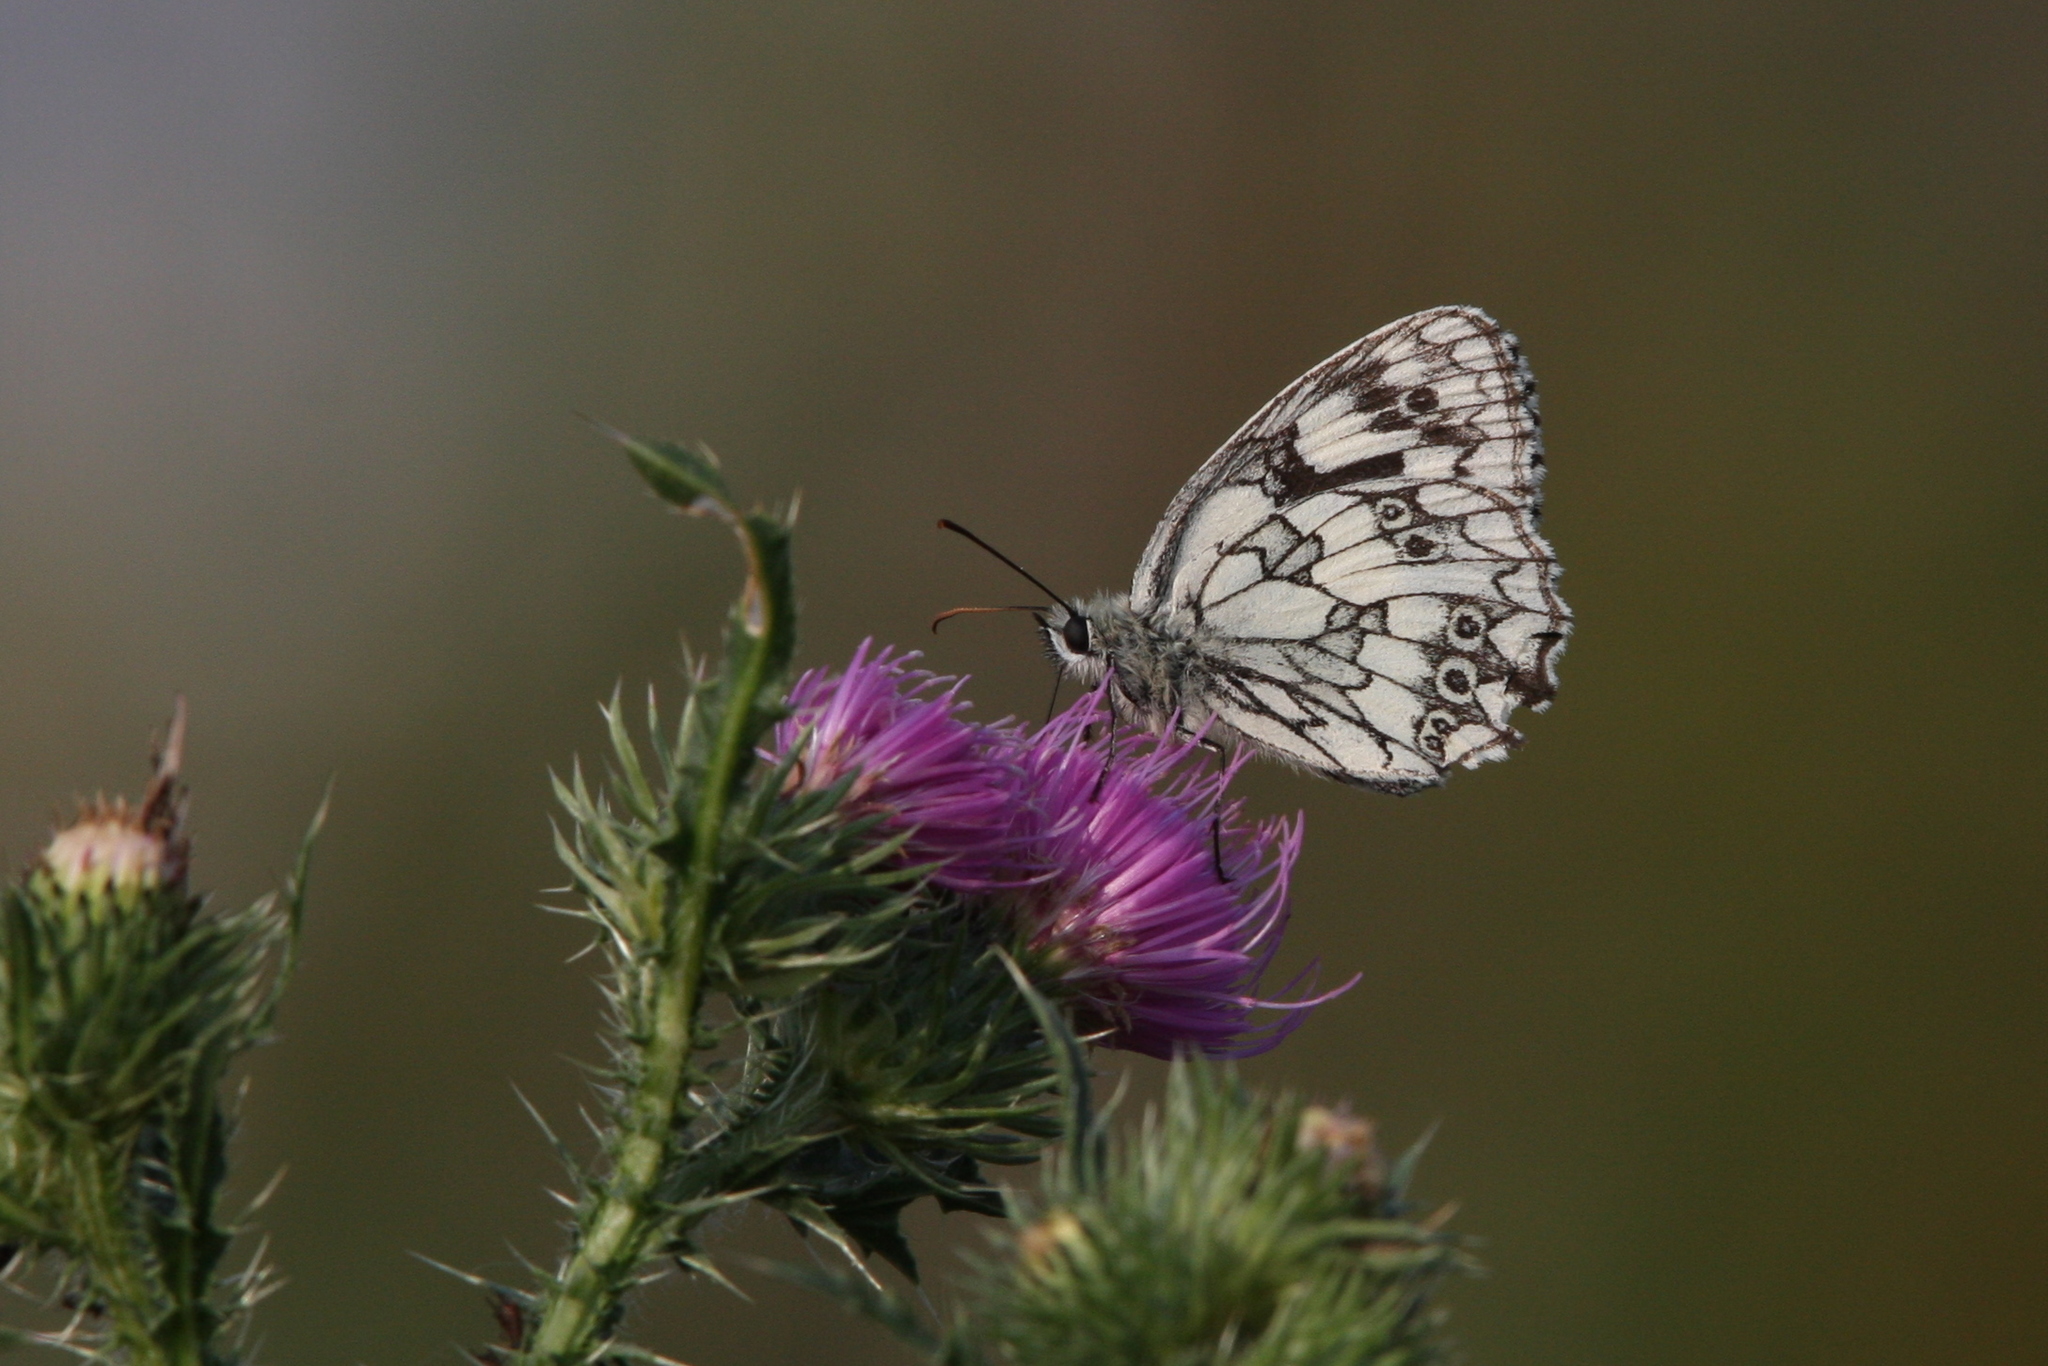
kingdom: Animalia
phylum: Arthropoda
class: Insecta
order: Lepidoptera
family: Nymphalidae
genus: Melanargia
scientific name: Melanargia galathea
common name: Marbled white
